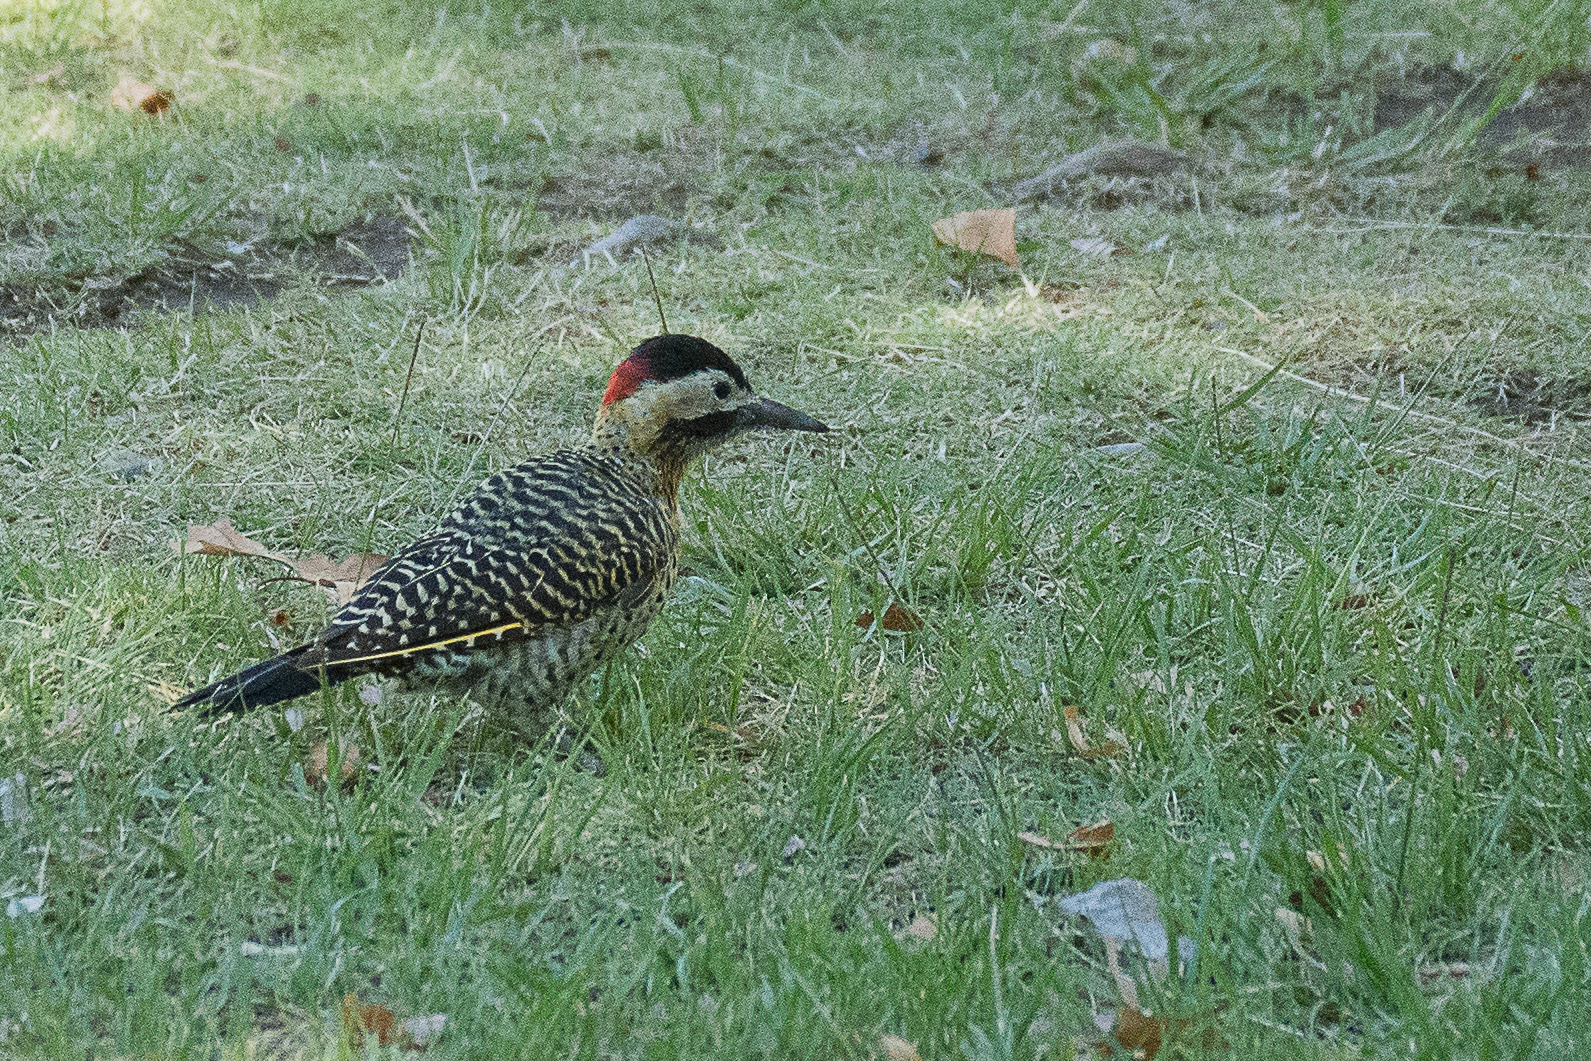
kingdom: Animalia
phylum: Chordata
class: Aves
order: Piciformes
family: Picidae
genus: Colaptes
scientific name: Colaptes melanochloros
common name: Green-barred woodpecker
